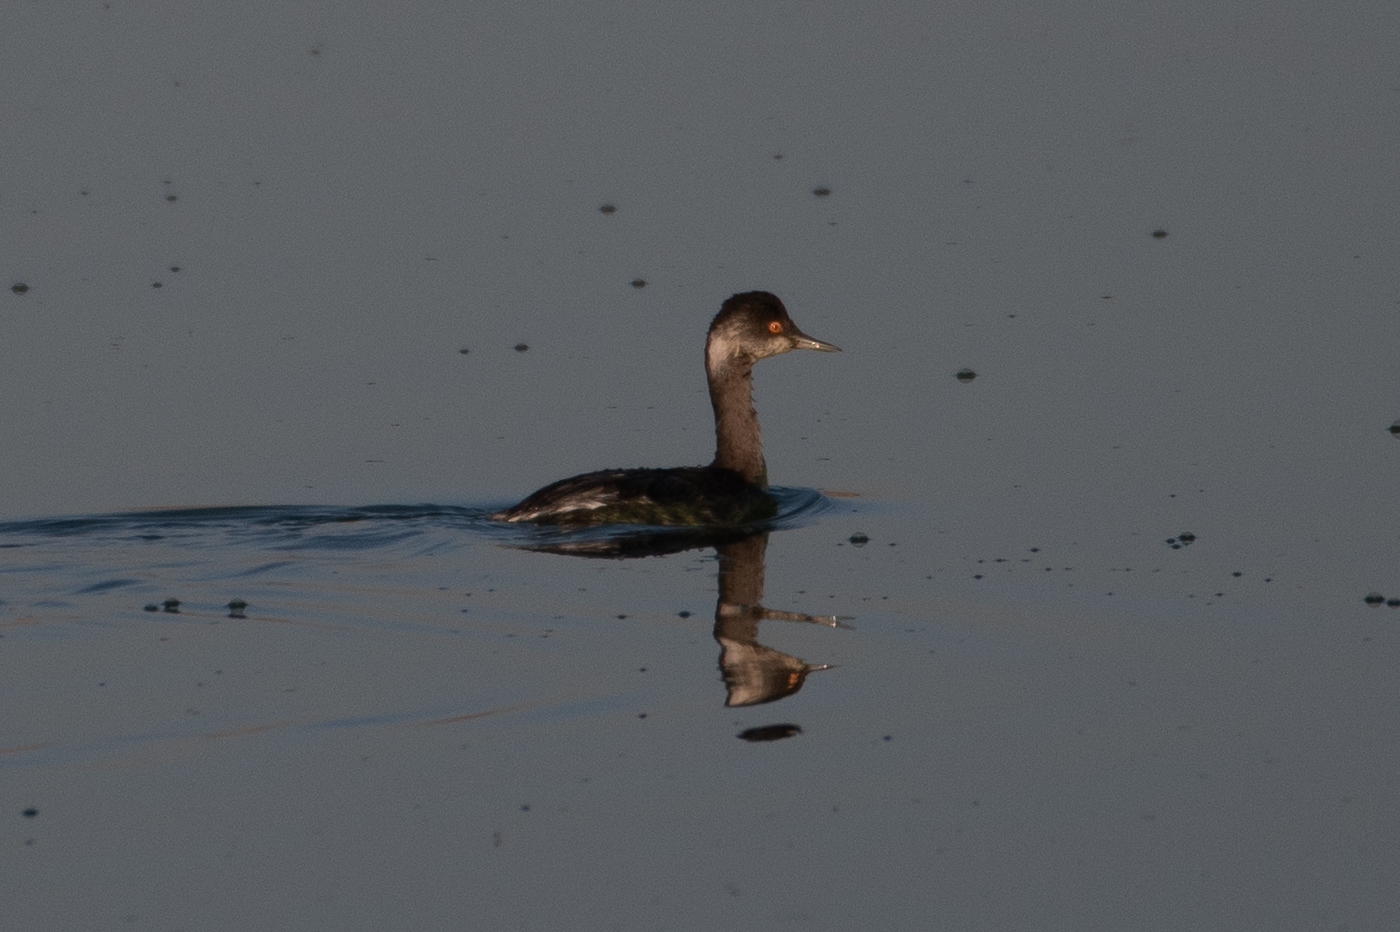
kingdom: Animalia
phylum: Chordata
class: Aves
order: Podicipediformes
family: Podicipedidae
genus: Podiceps
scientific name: Podiceps nigricollis
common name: Black-necked grebe
